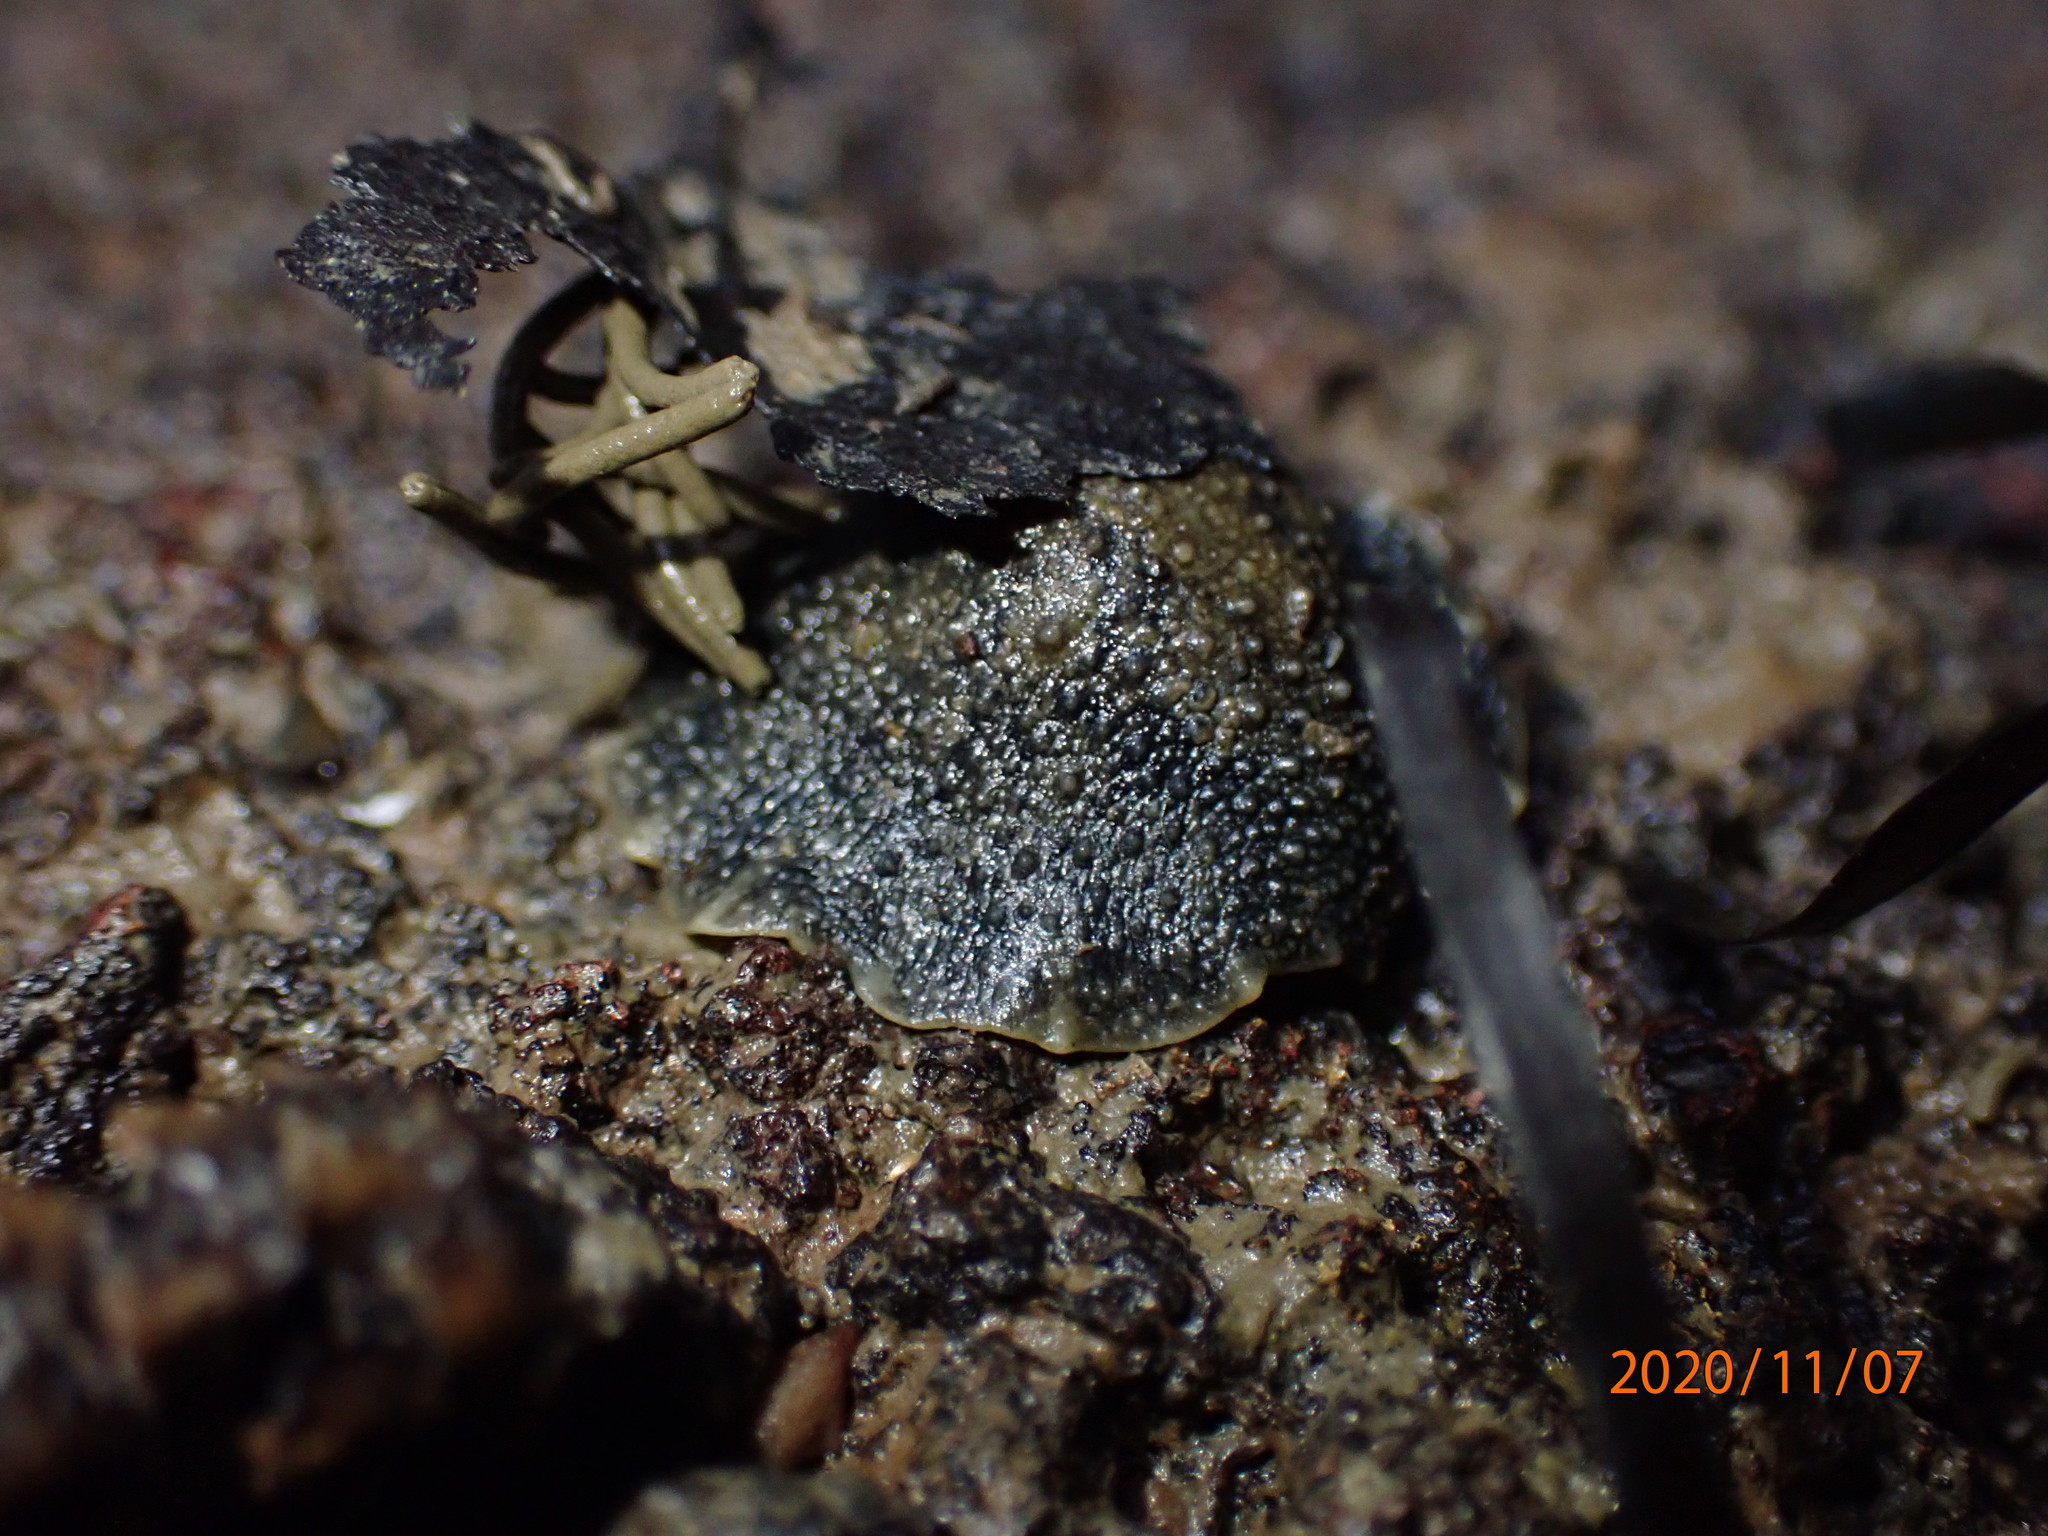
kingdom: Animalia
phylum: Mollusca
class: Gastropoda
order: Systellommatophora
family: Onchidiidae
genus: Onchidella
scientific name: Onchidella nigricans
